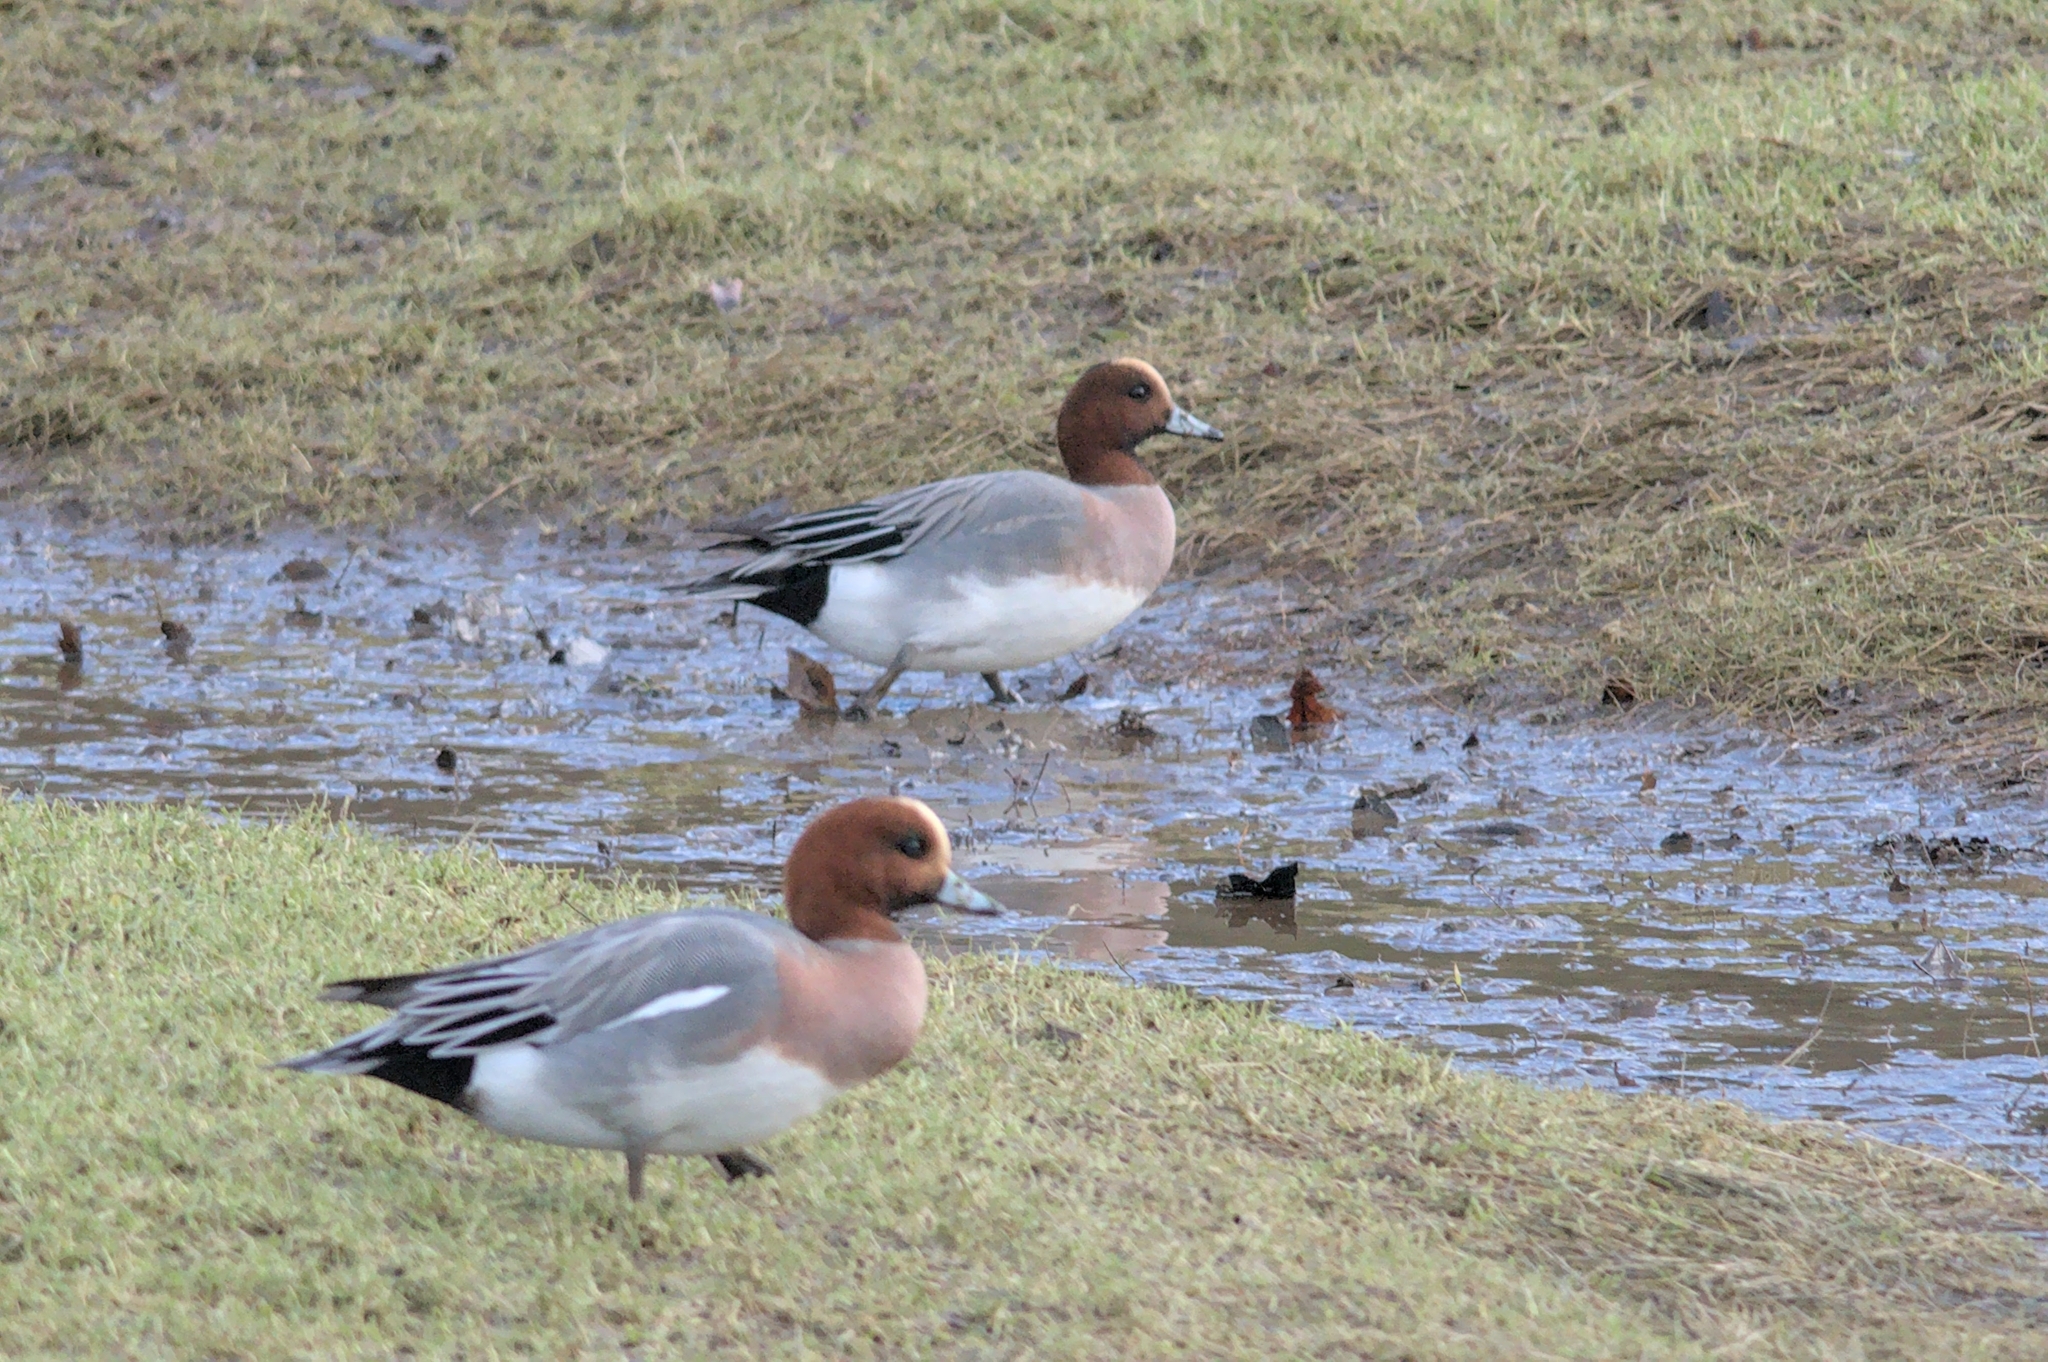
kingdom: Animalia
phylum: Chordata
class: Aves
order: Anseriformes
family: Anatidae
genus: Mareca
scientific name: Mareca penelope
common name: Eurasian wigeon
